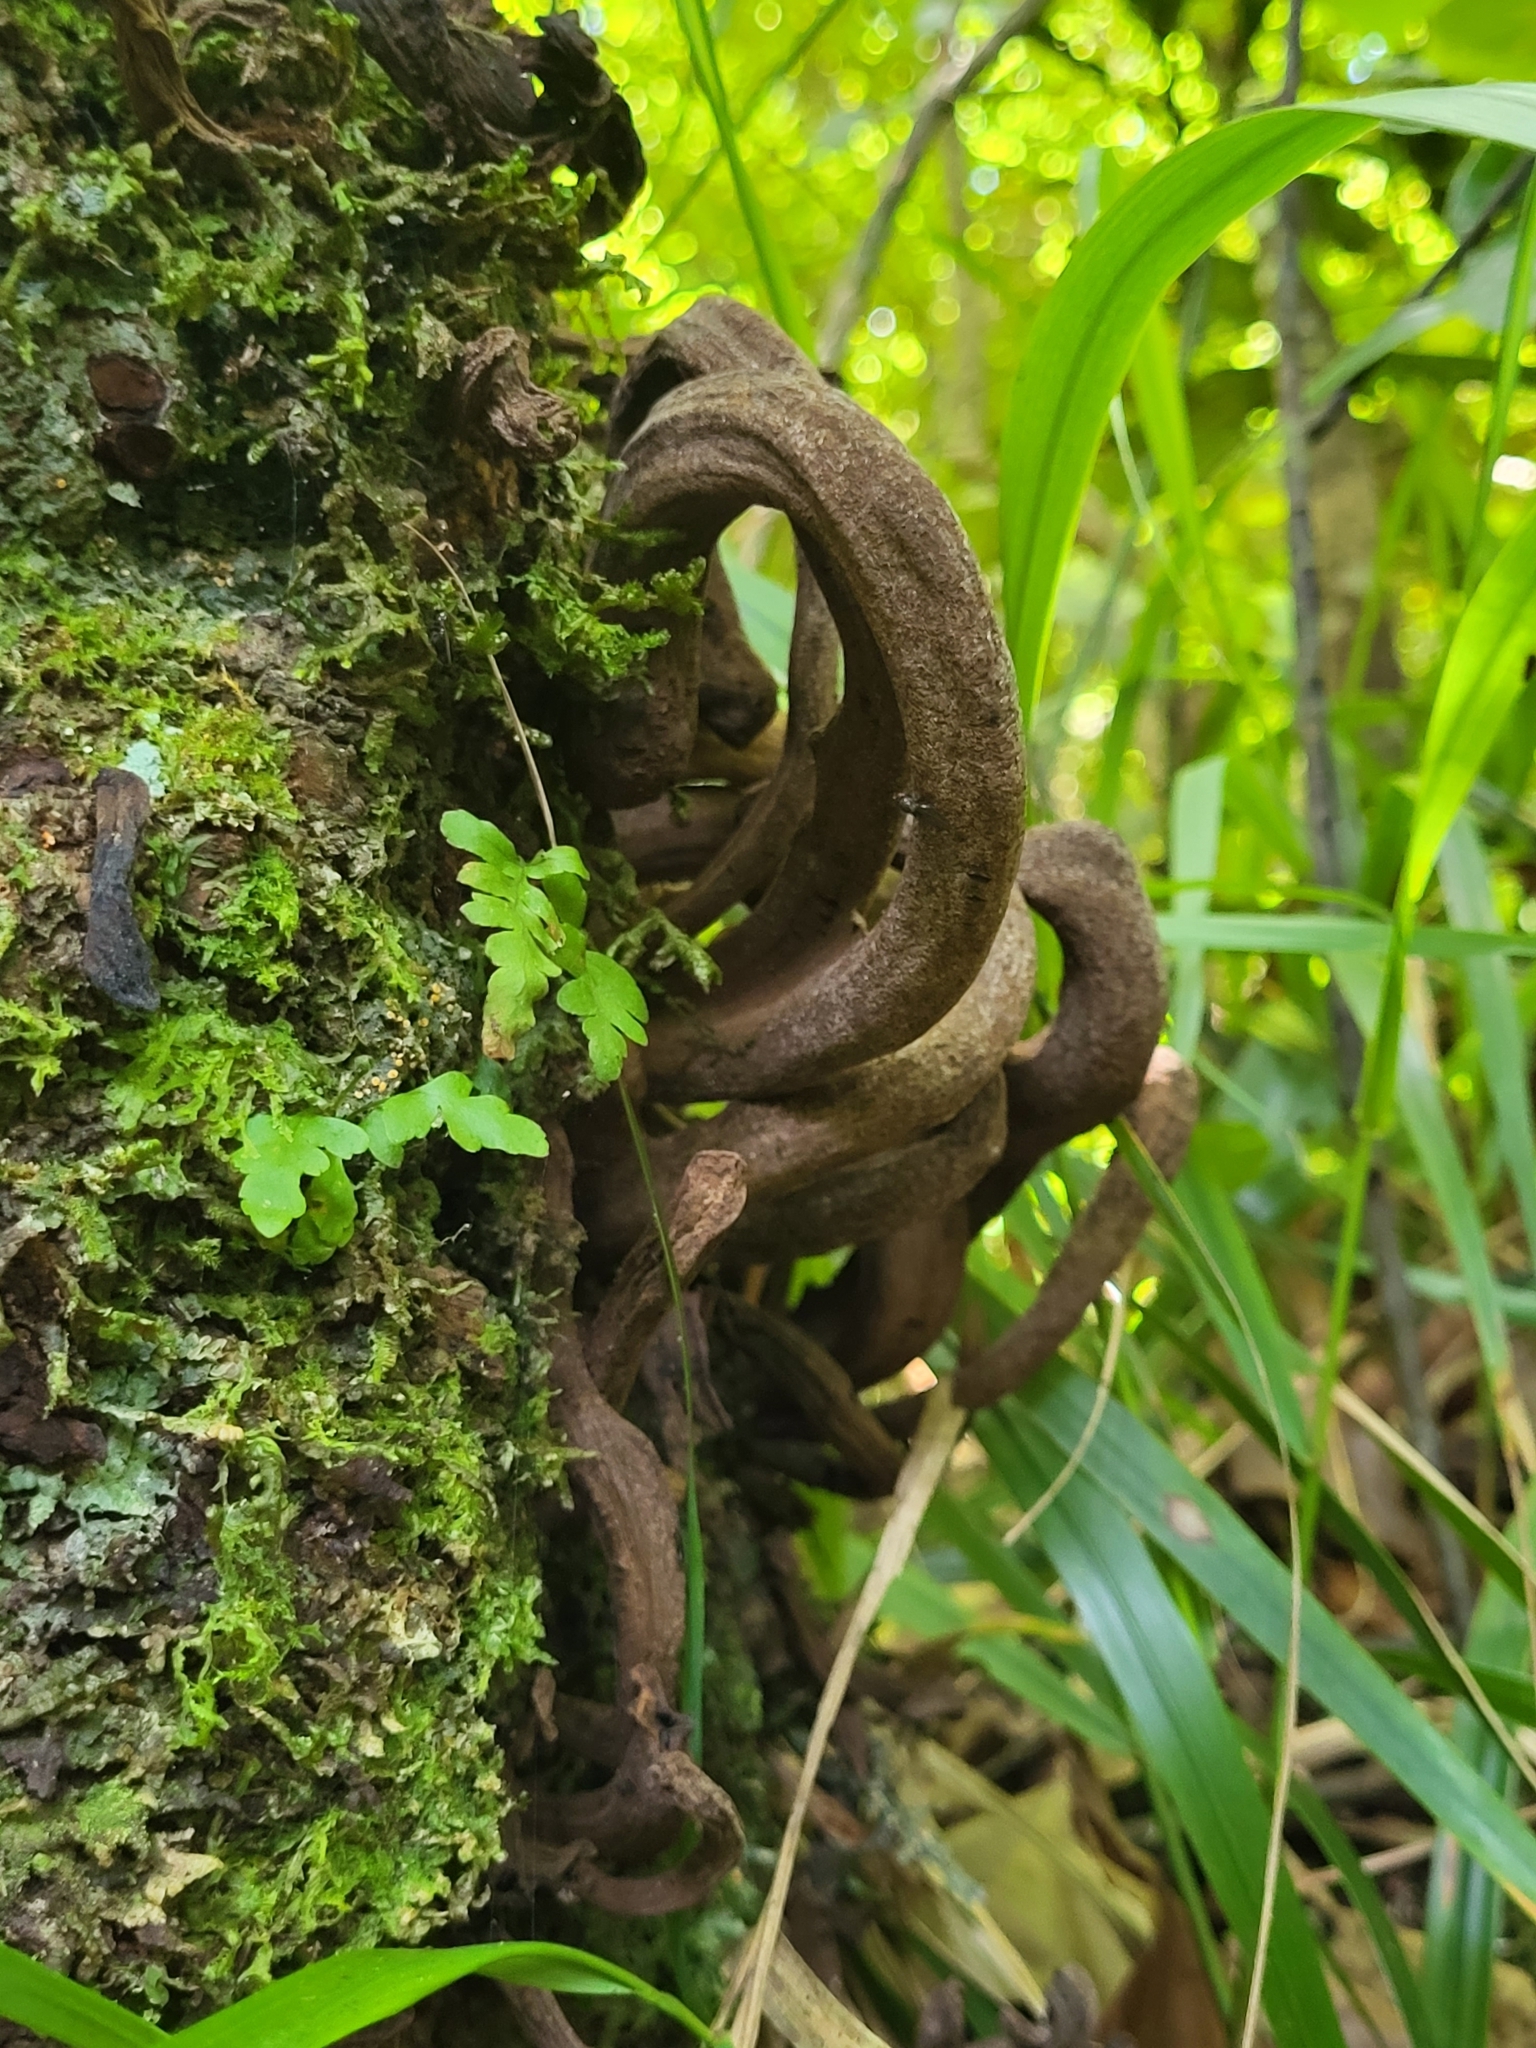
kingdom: Fungi
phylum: Basidiomycota
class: Exobasidiomycetes
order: Exobasidiales
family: Laurobasidiaceae
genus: Laurobasidium
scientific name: Laurobasidium lauri
